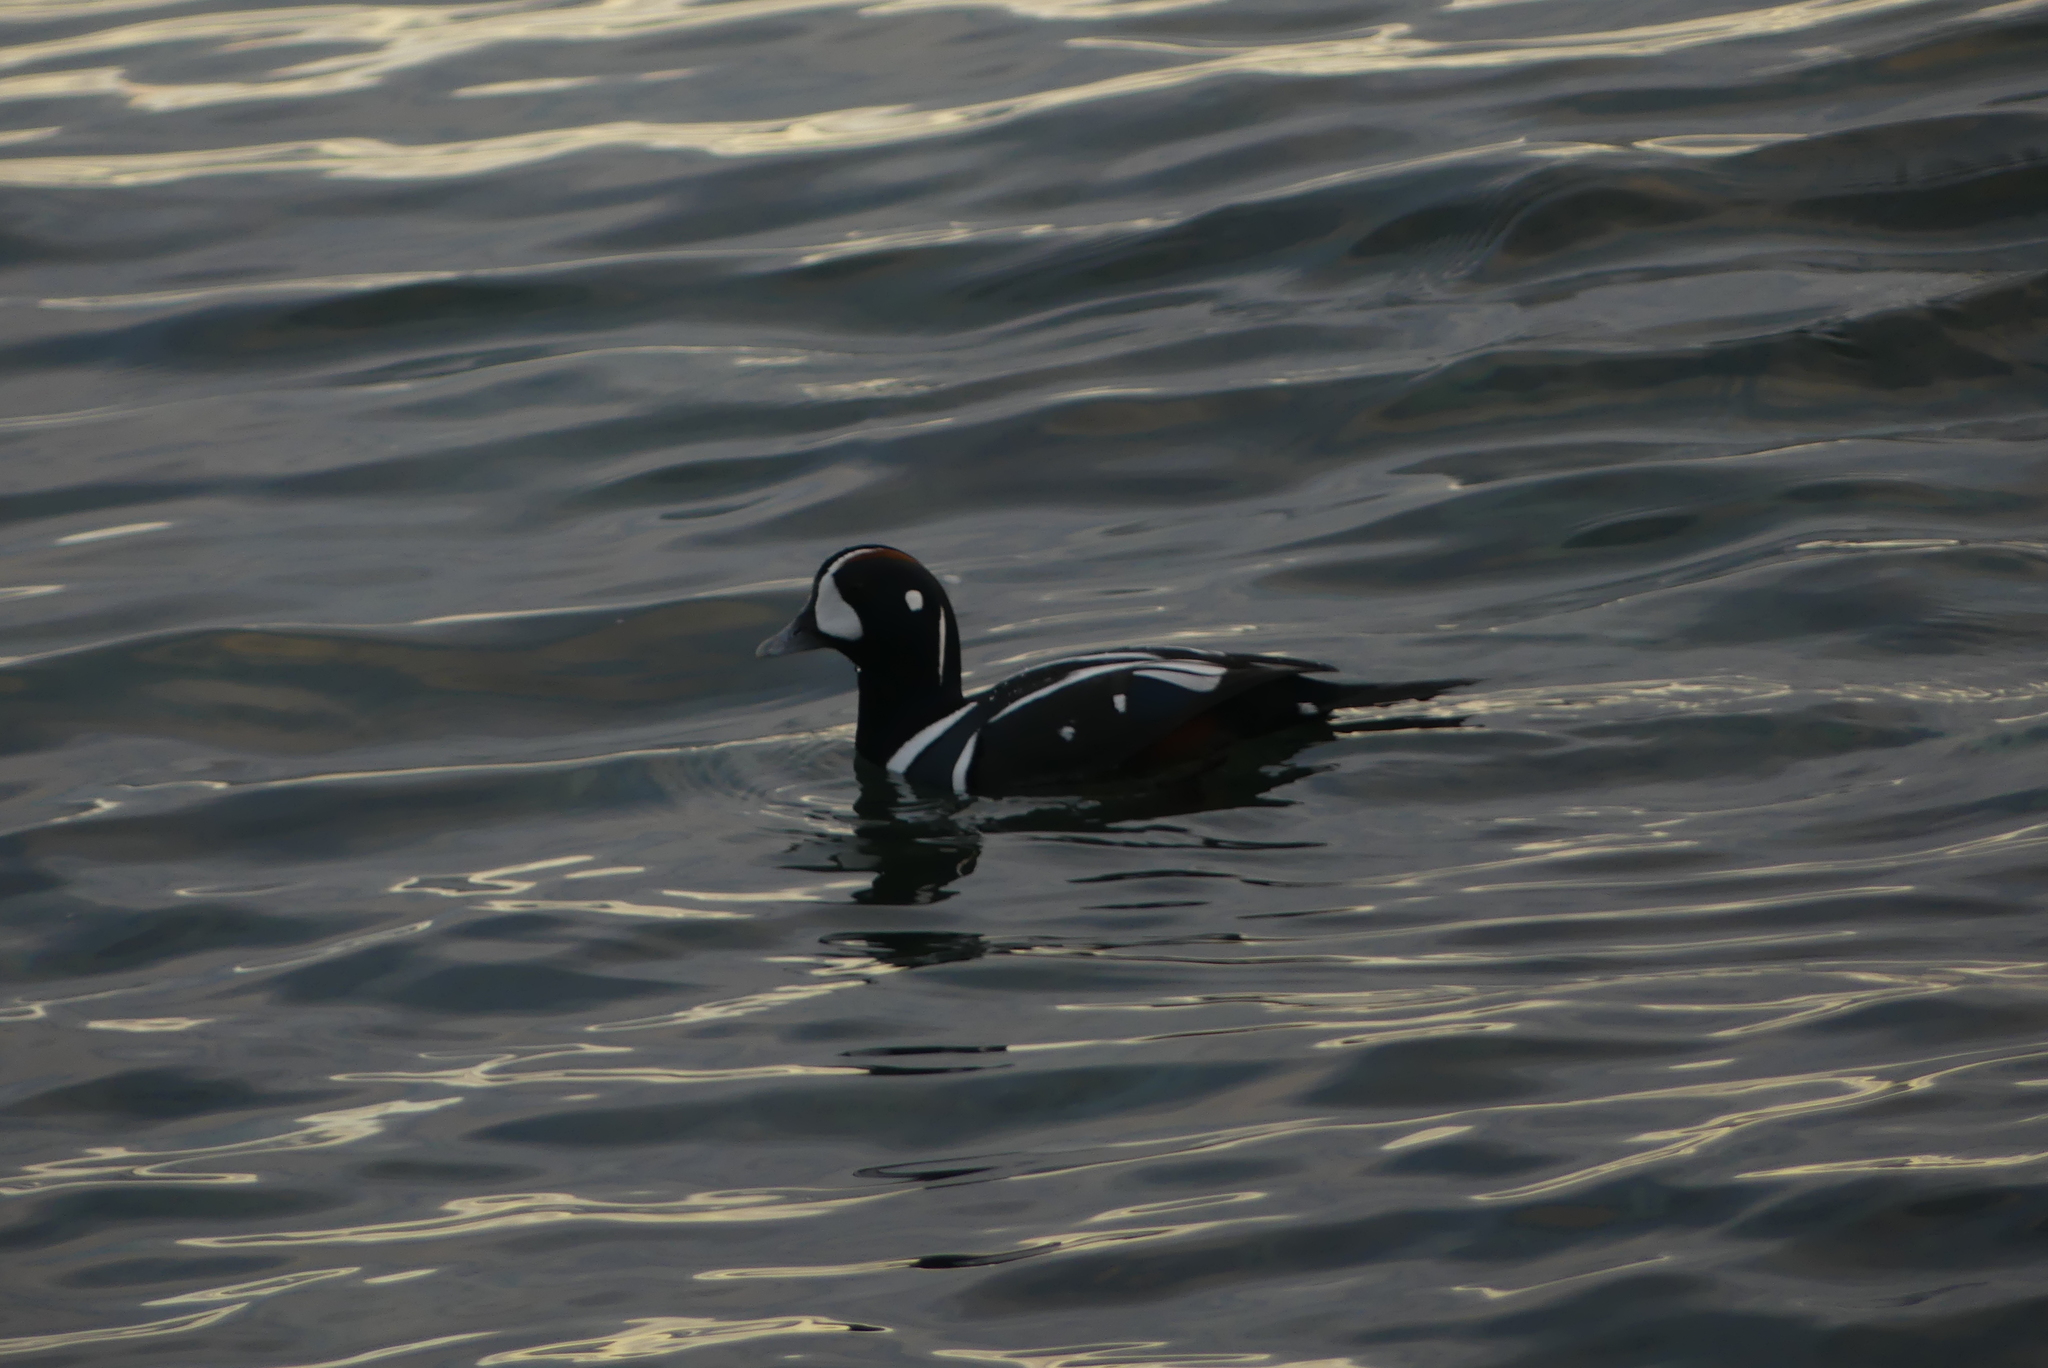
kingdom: Animalia
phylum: Chordata
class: Aves
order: Anseriformes
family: Anatidae
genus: Histrionicus
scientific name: Histrionicus histrionicus
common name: Harlequin duck
